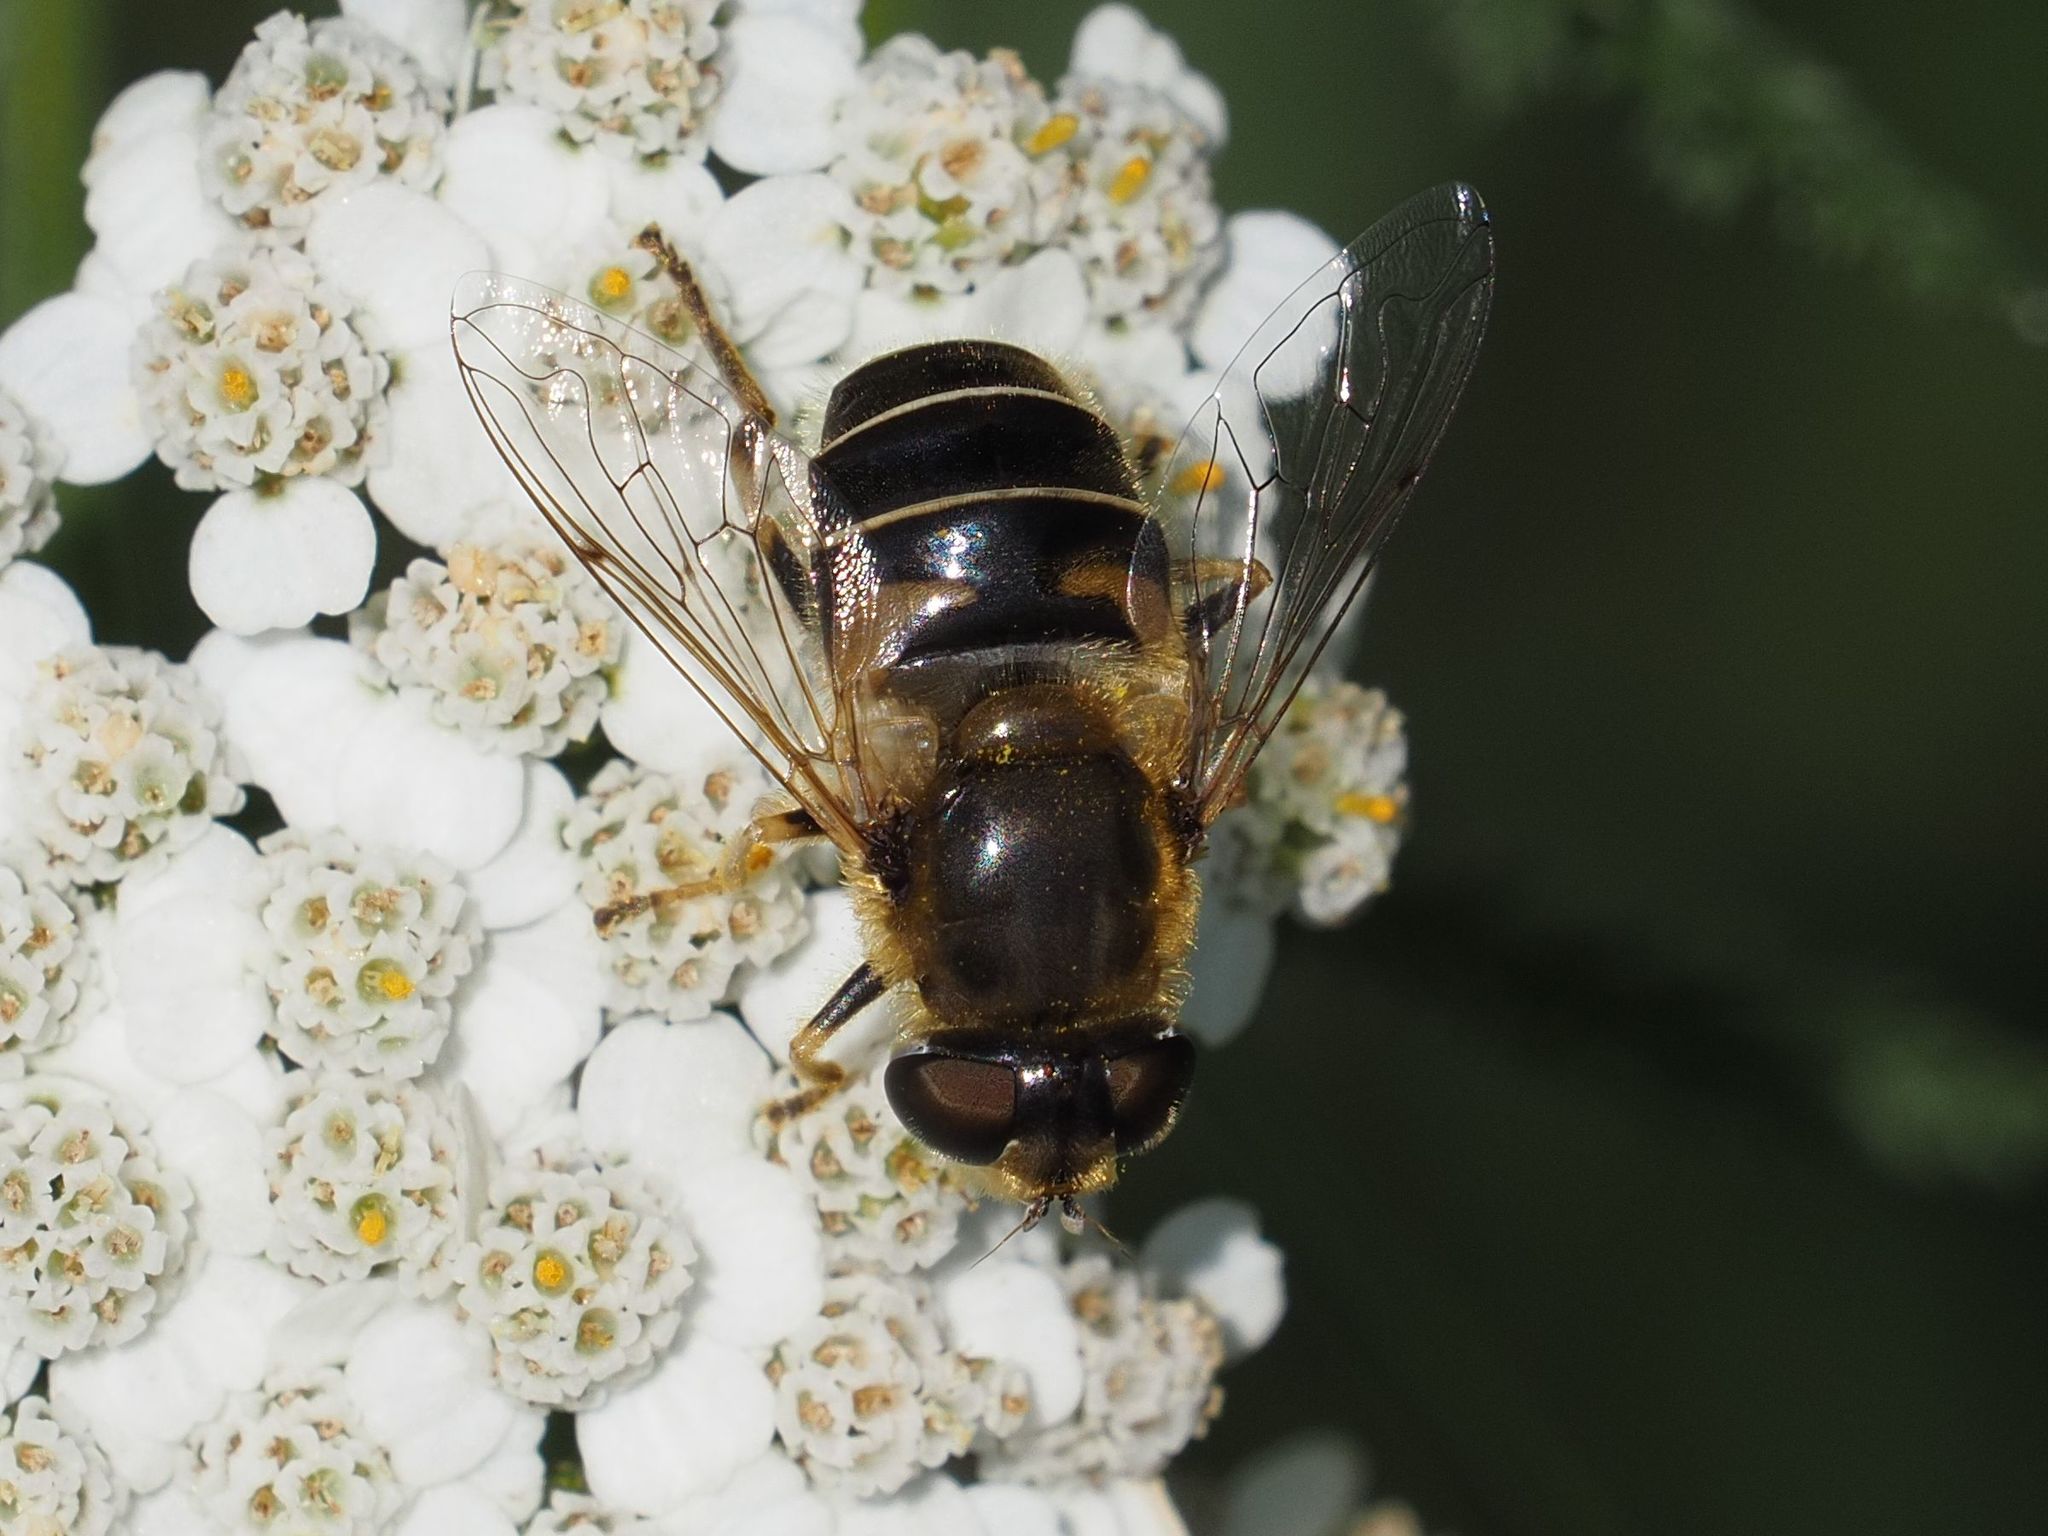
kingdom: Animalia
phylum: Arthropoda
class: Insecta
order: Diptera
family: Syrphidae
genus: Eristalis
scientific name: Eristalis nemorum
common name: Orange-spined drone fly
